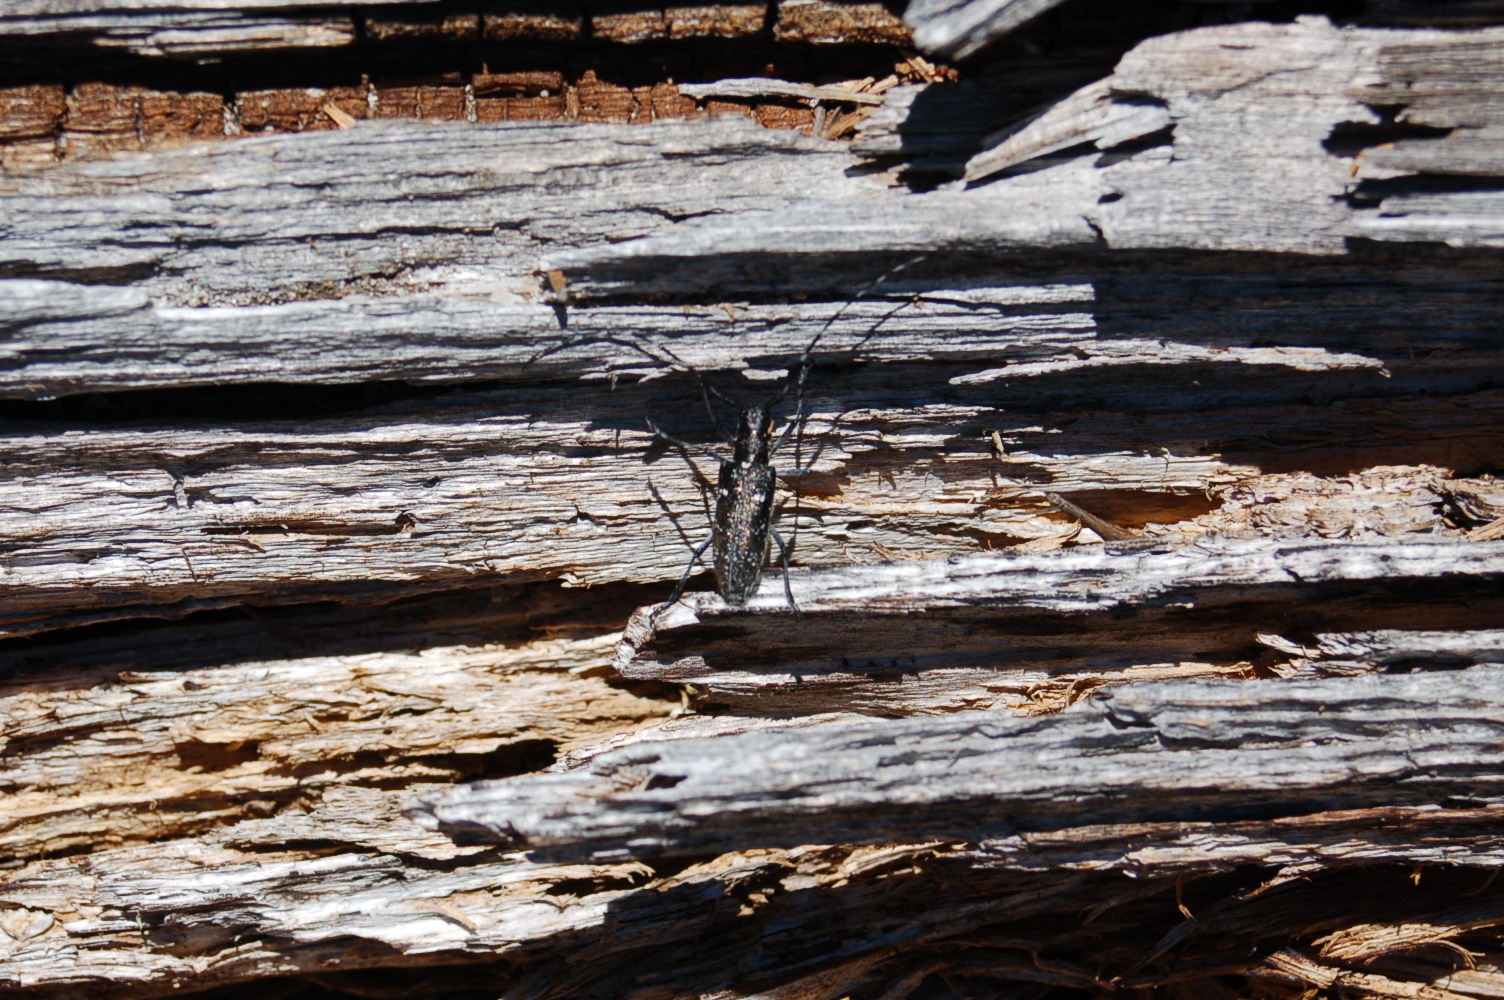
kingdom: Animalia
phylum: Arthropoda
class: Insecta
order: Coleoptera
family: Cerambycidae
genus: Monochamus
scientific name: Monochamus scutellatus
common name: White-spotted sawyer beetle
